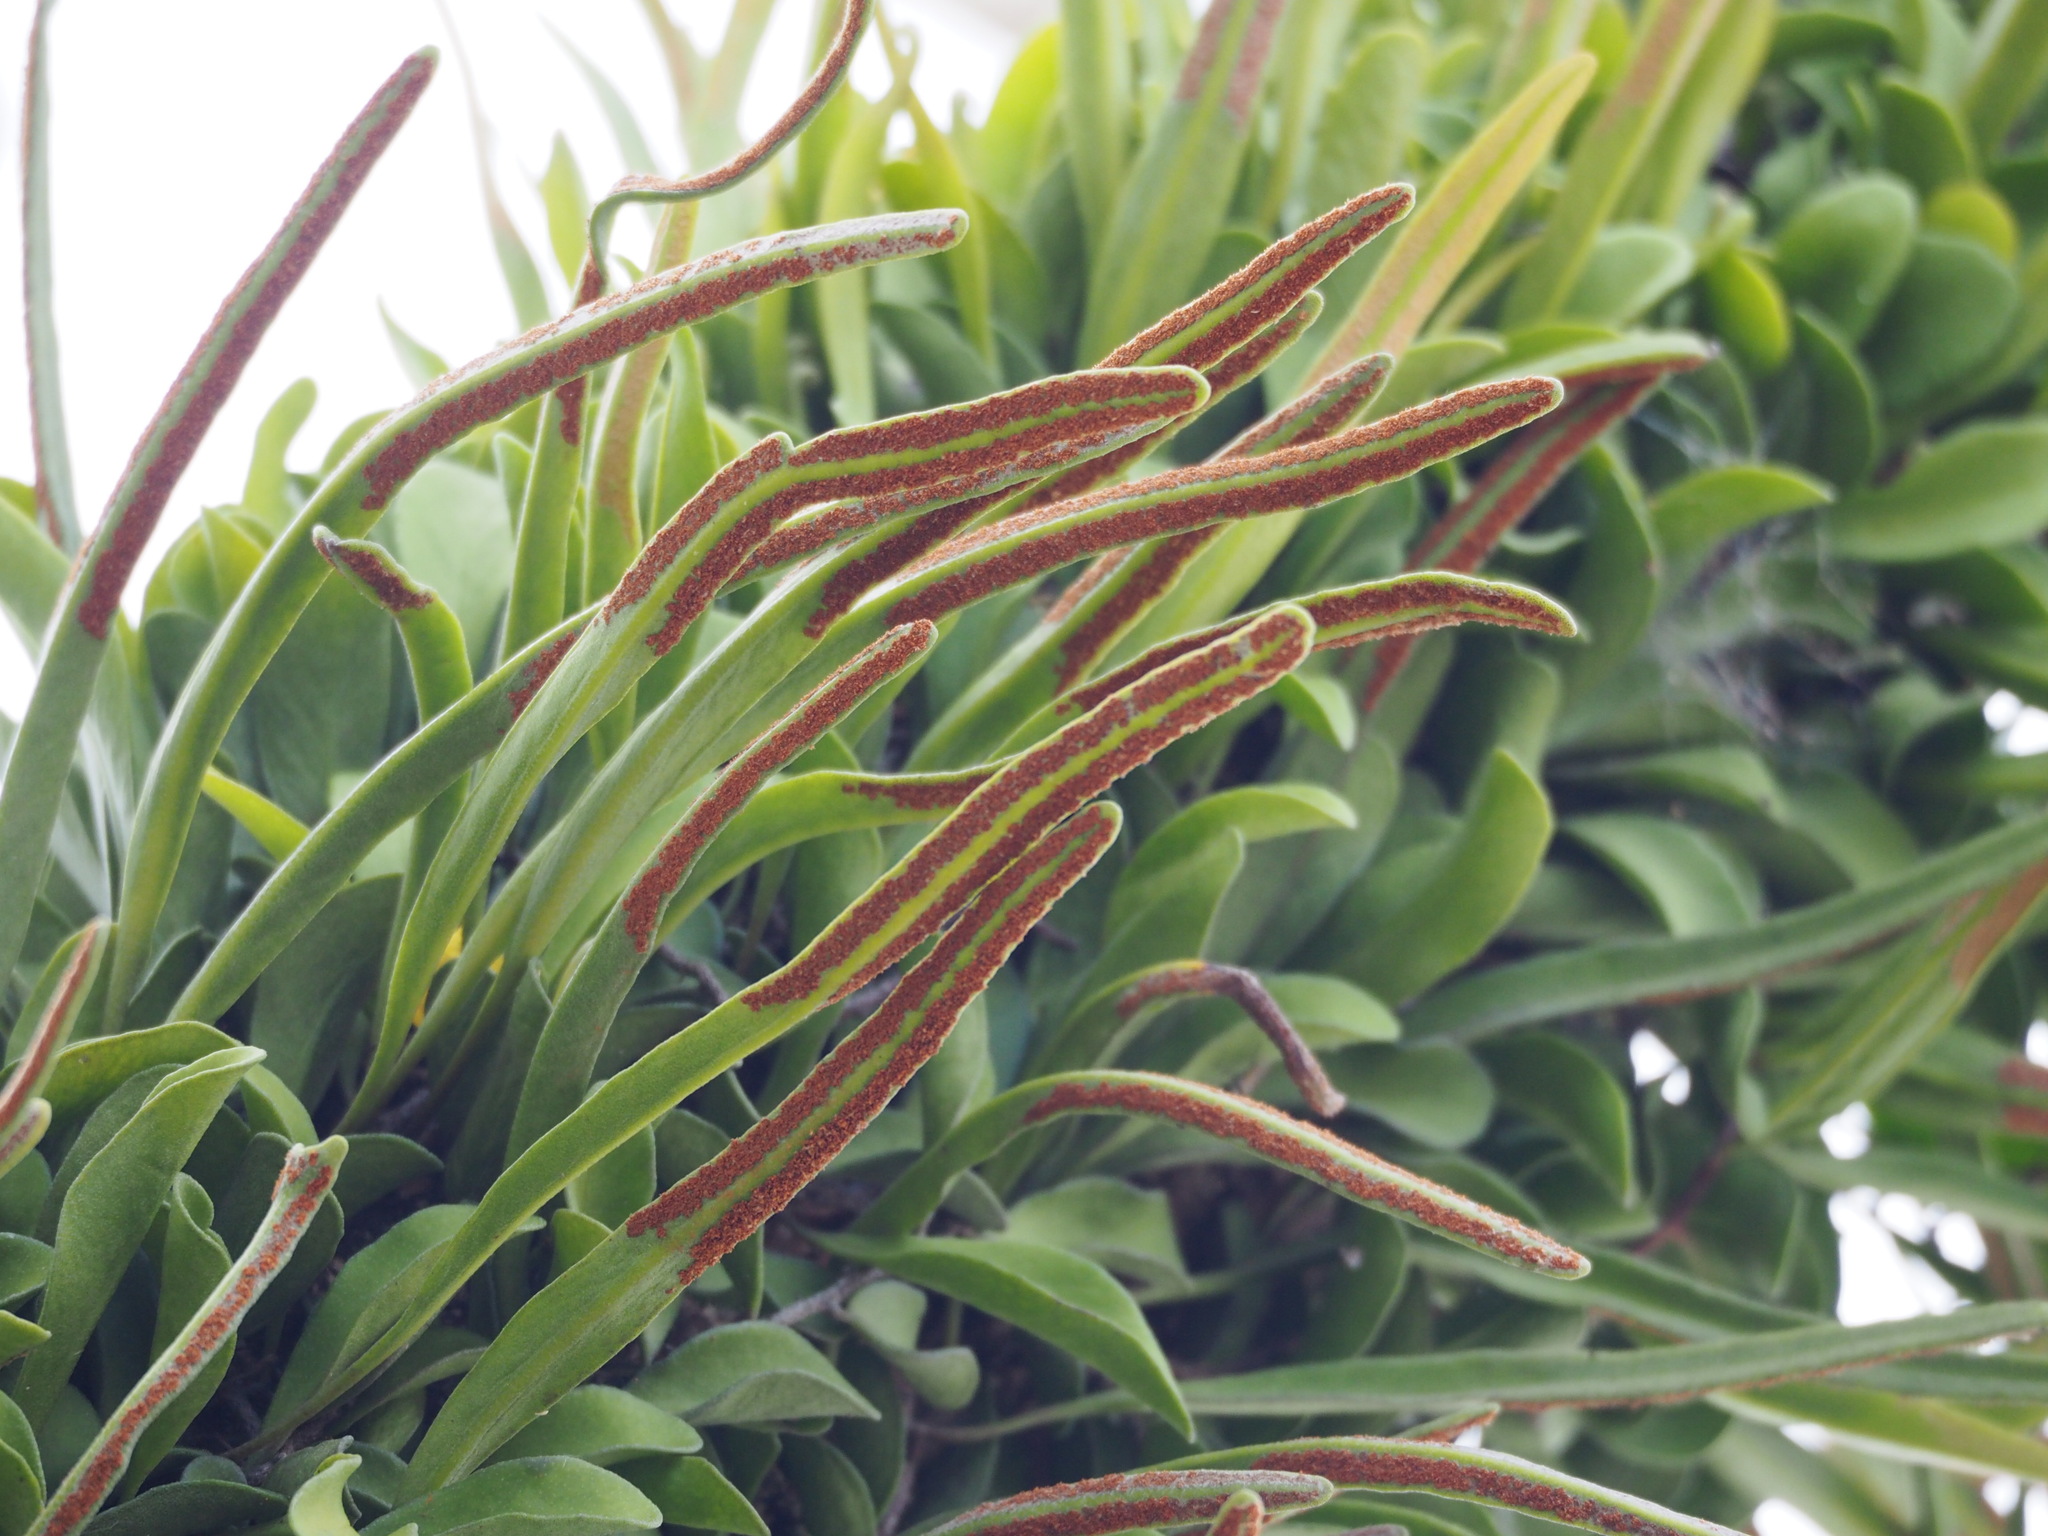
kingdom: Plantae
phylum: Tracheophyta
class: Polypodiopsida
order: Polypodiales
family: Polypodiaceae
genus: Pyrrosia
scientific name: Pyrrosia lanceolata
